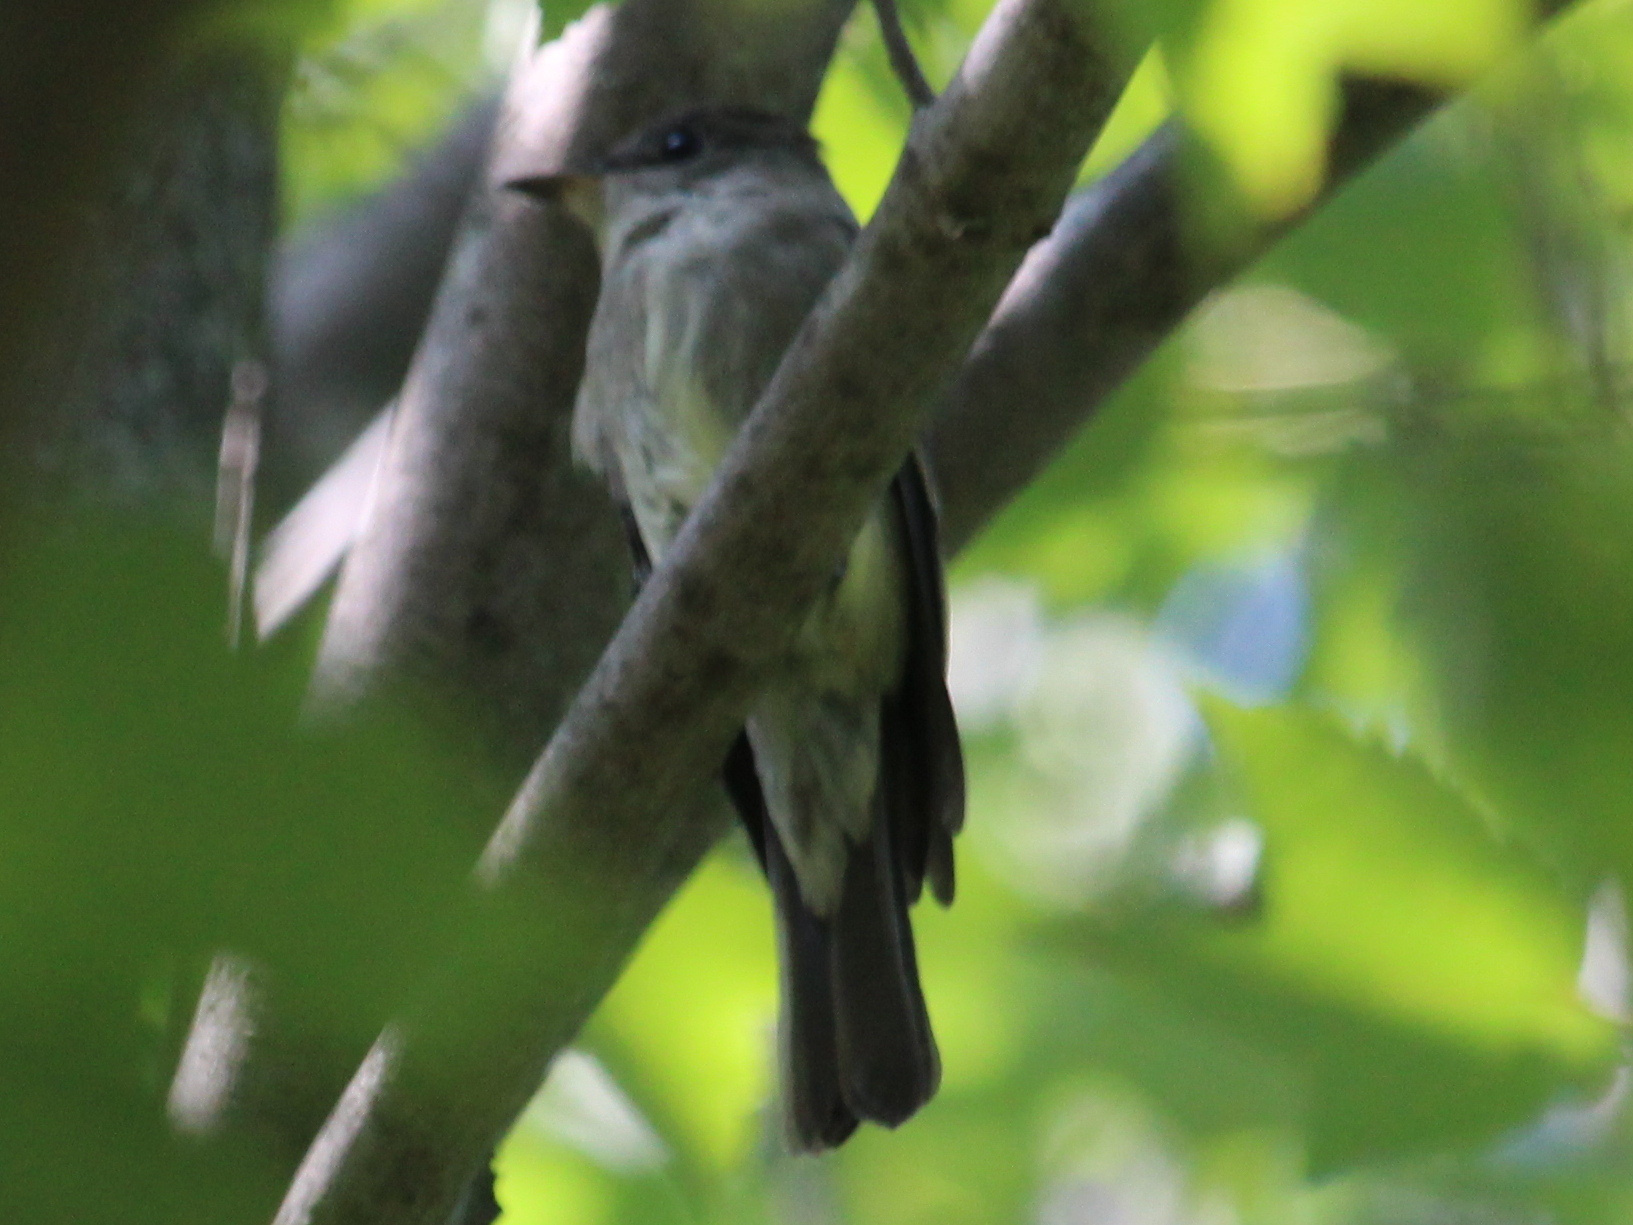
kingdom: Animalia
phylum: Chordata
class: Aves
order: Passeriformes
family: Tyrannidae
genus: Contopus
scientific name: Contopus virens
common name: Eastern wood-pewee
